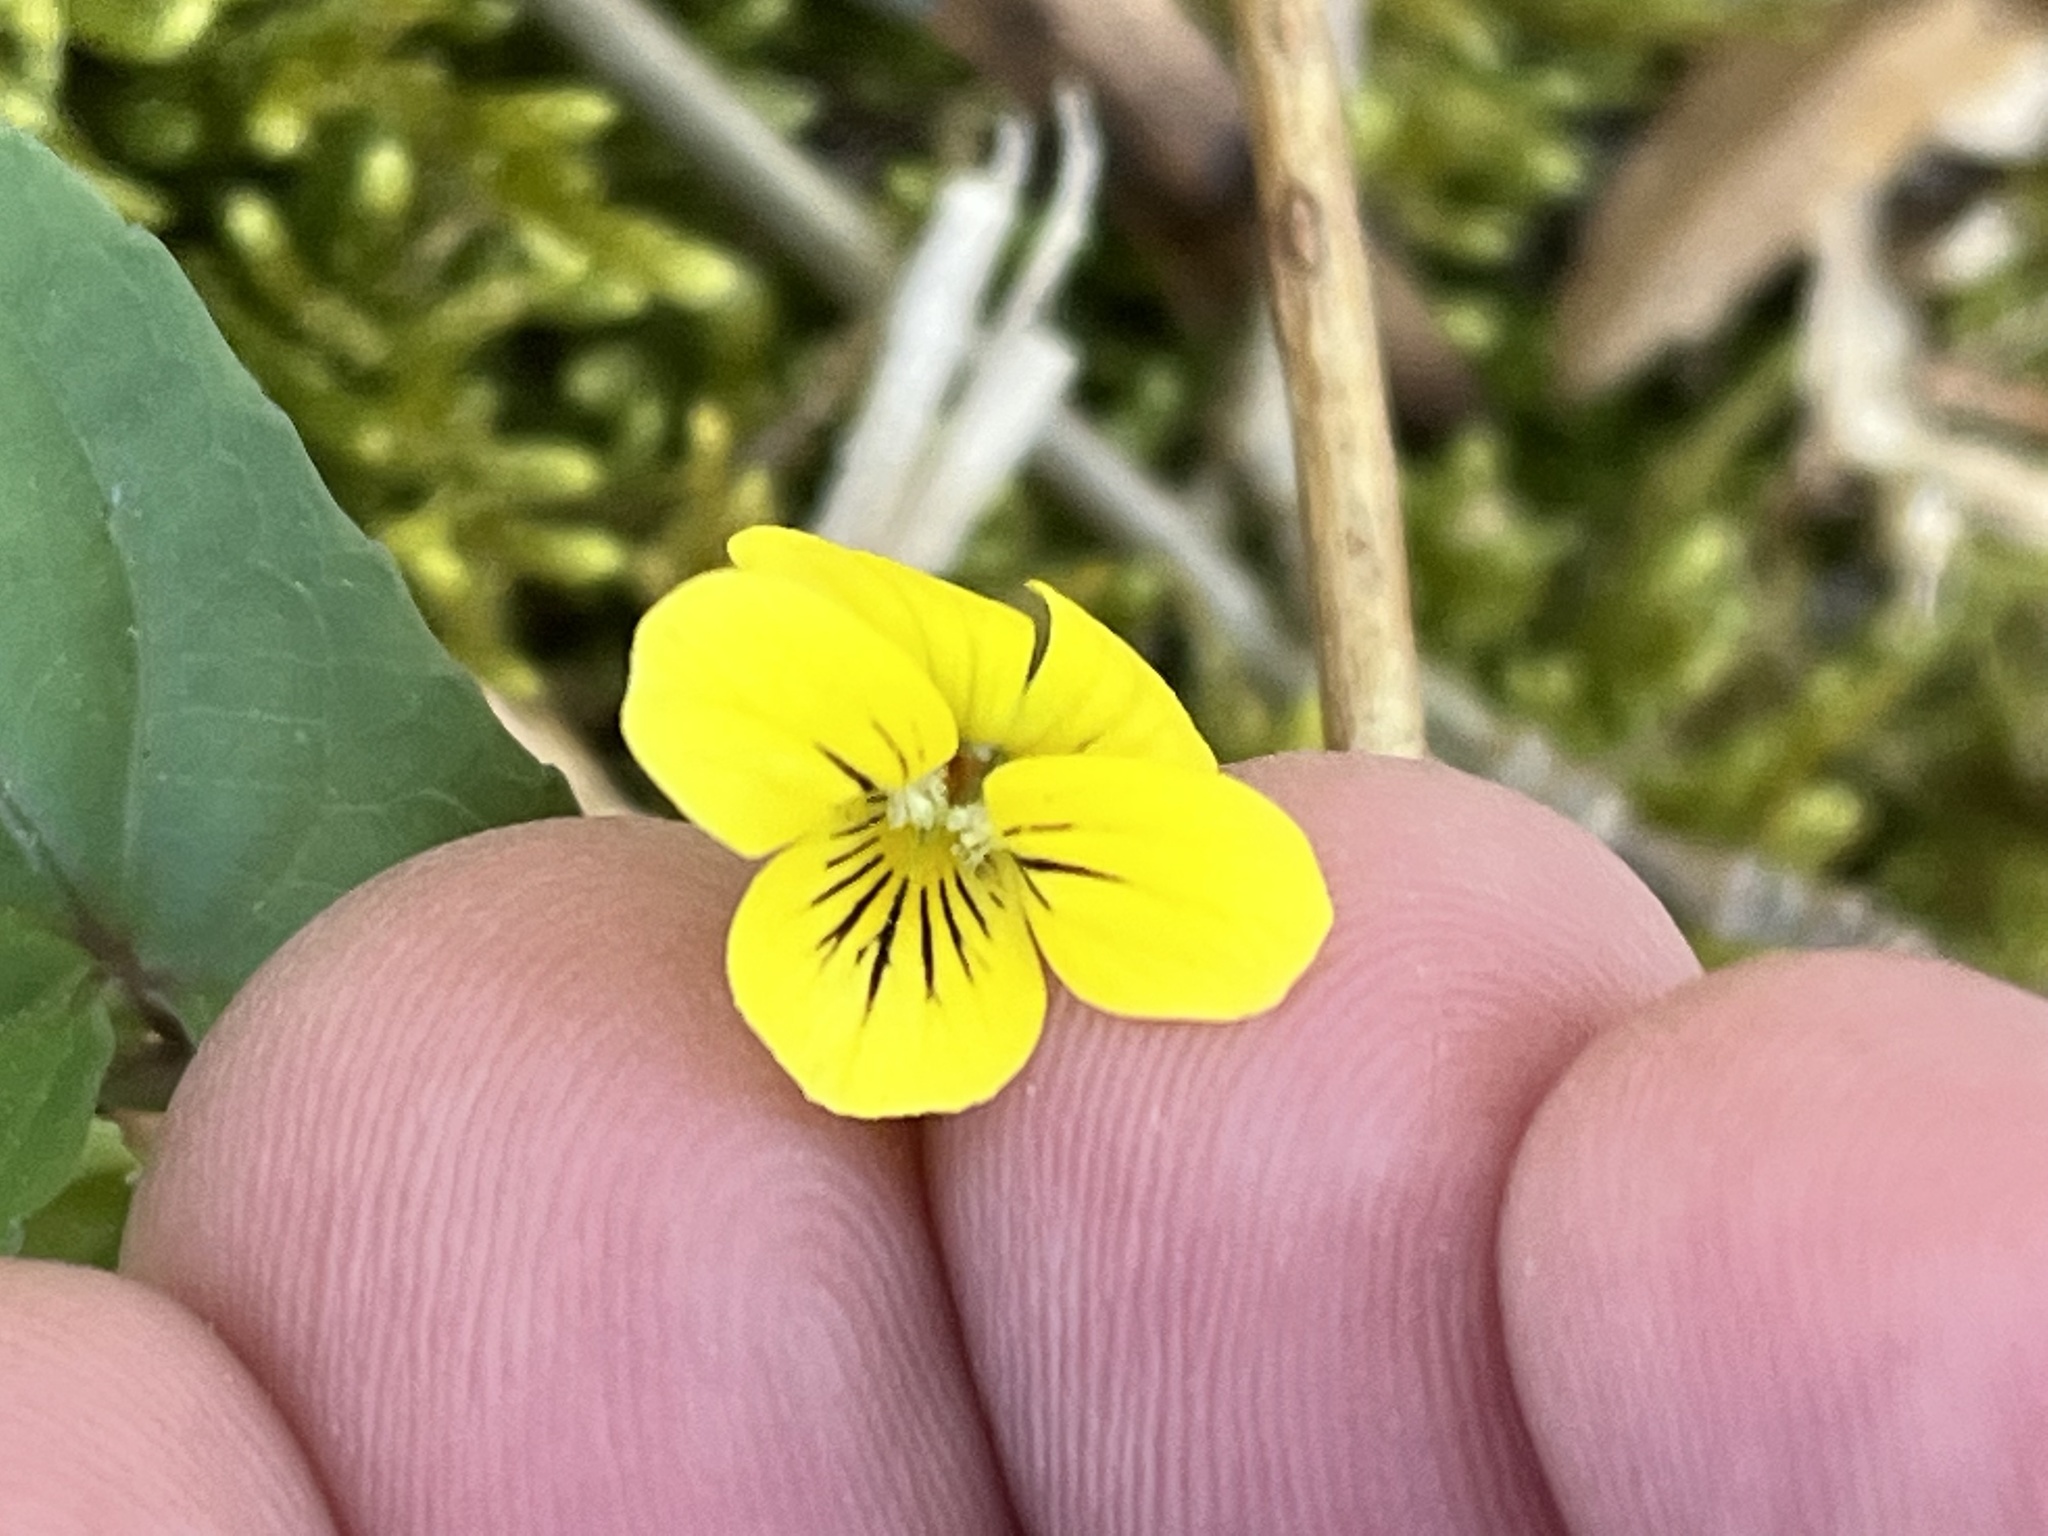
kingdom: Plantae
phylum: Tracheophyta
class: Magnoliopsida
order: Malpighiales
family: Violaceae
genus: Viola
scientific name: Viola hastata
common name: Spear-leaf violet
